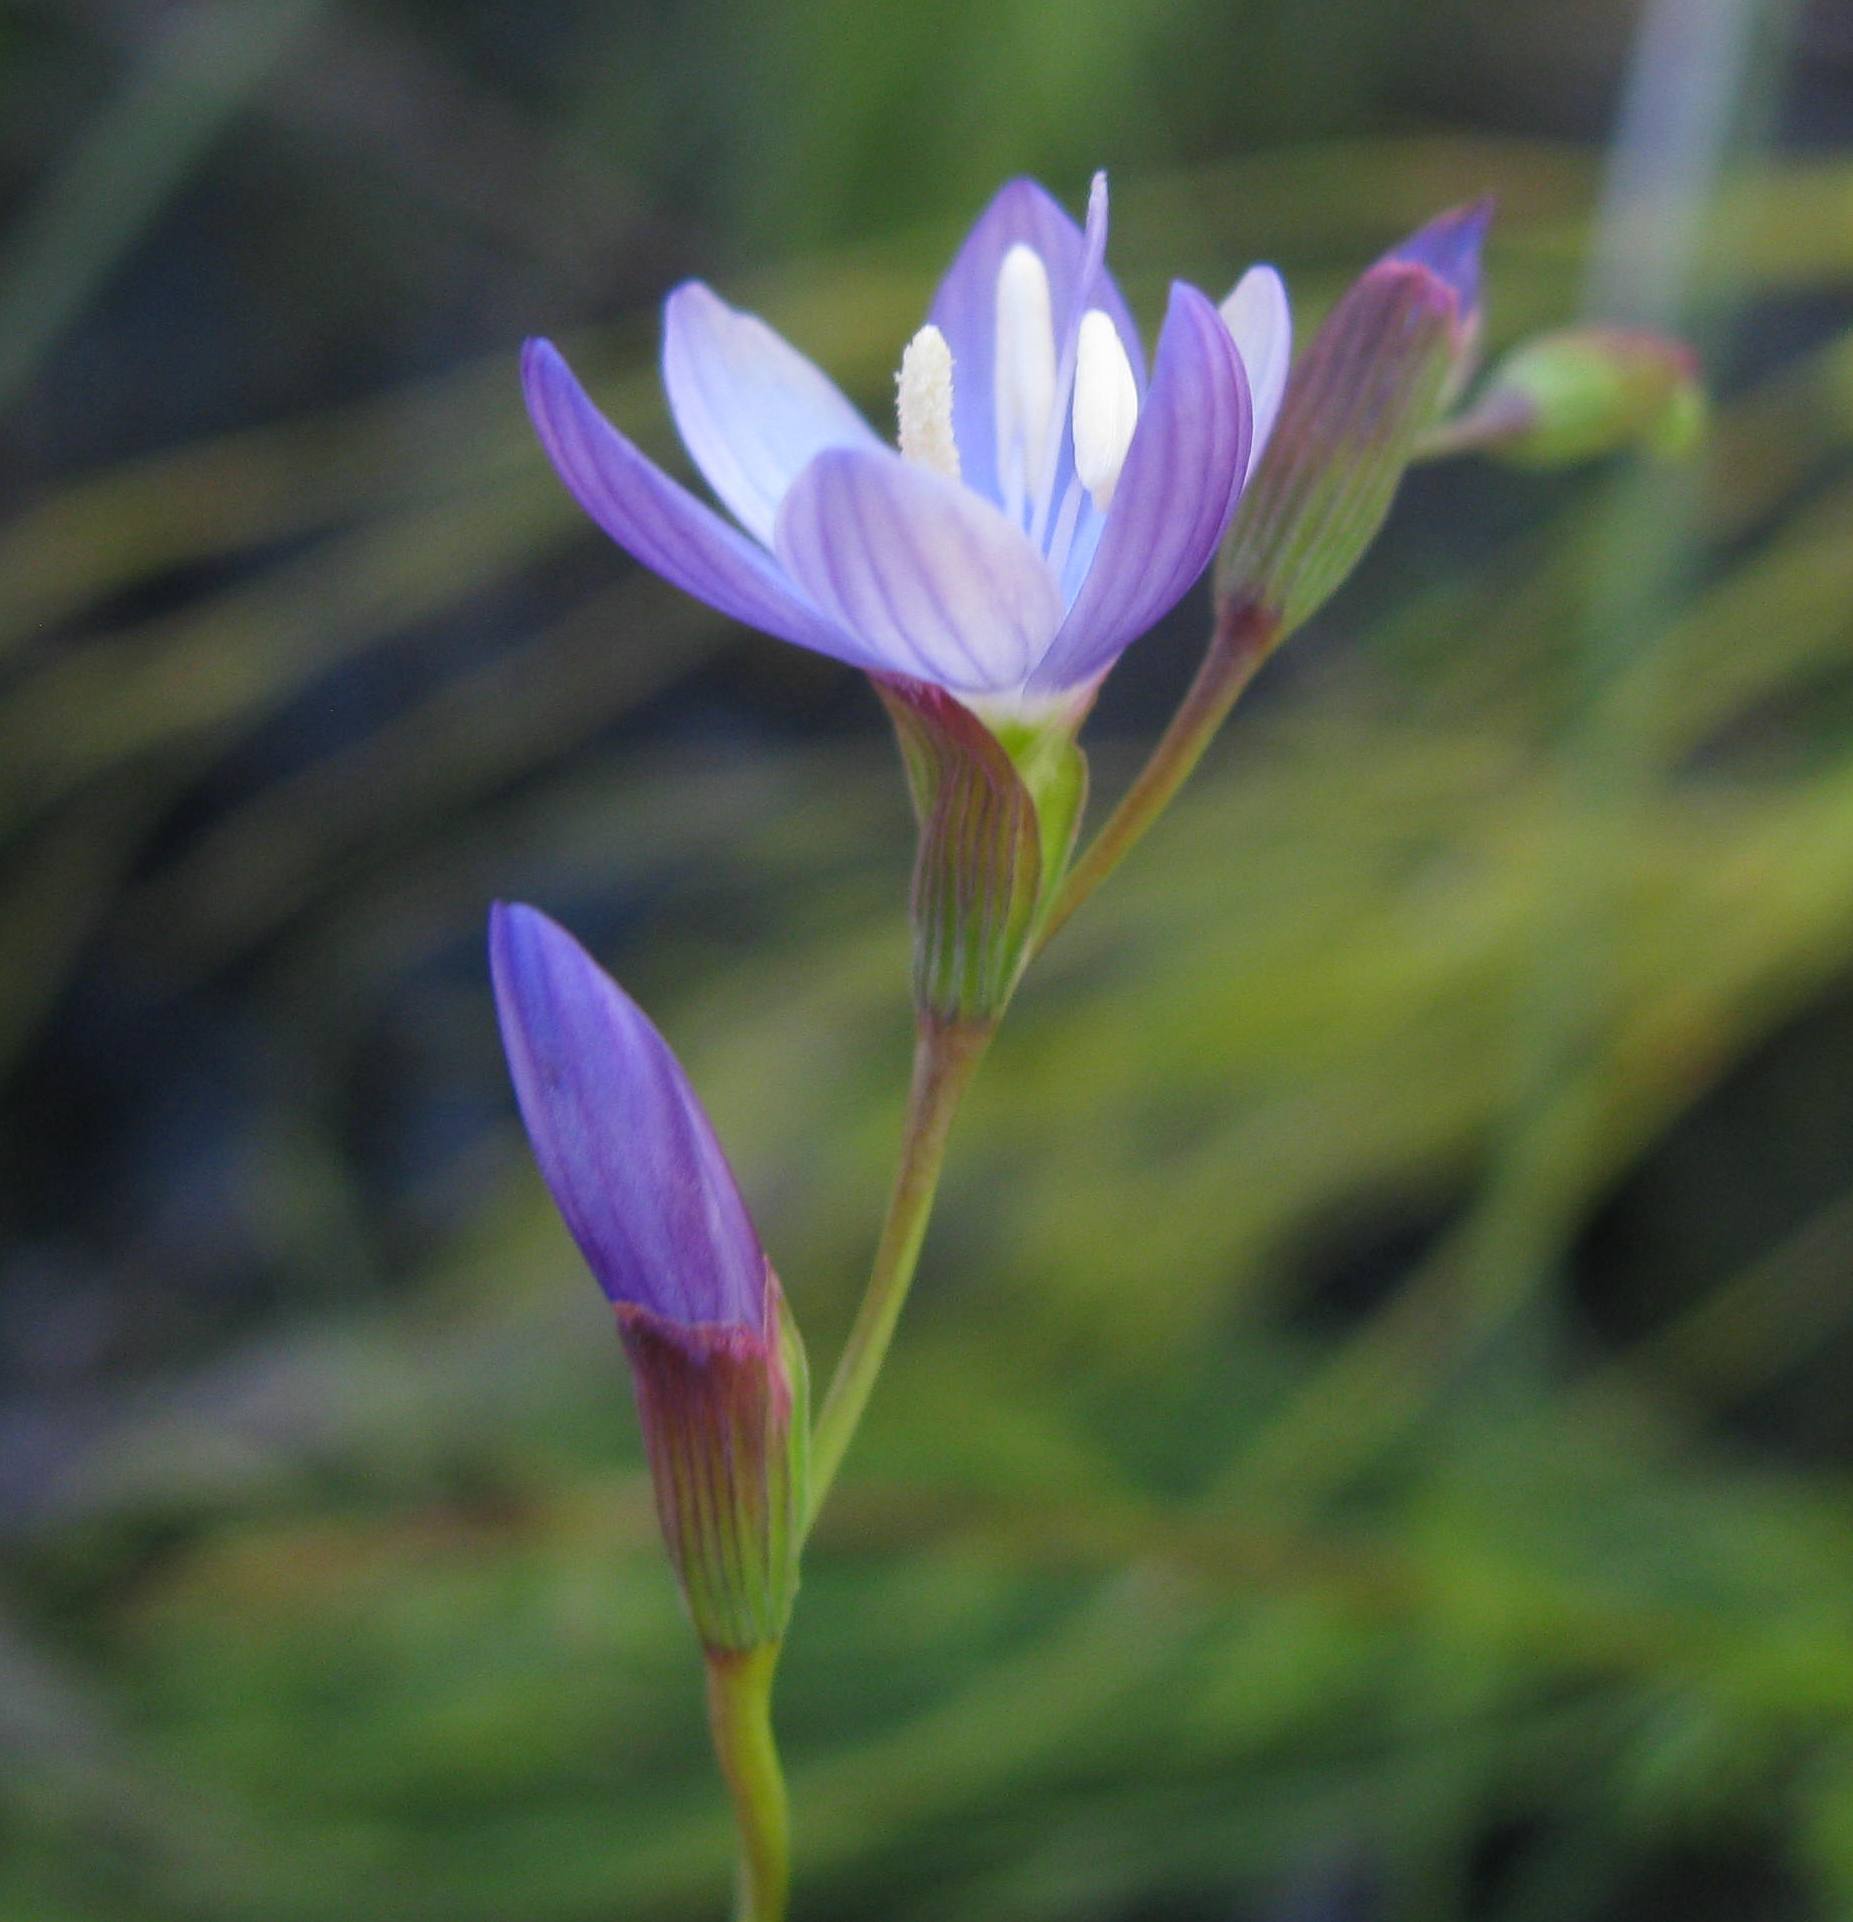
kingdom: Plantae
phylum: Tracheophyta
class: Liliopsida
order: Asparagales
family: Iridaceae
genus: Geissorhiza
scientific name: Geissorhiza ramosa
